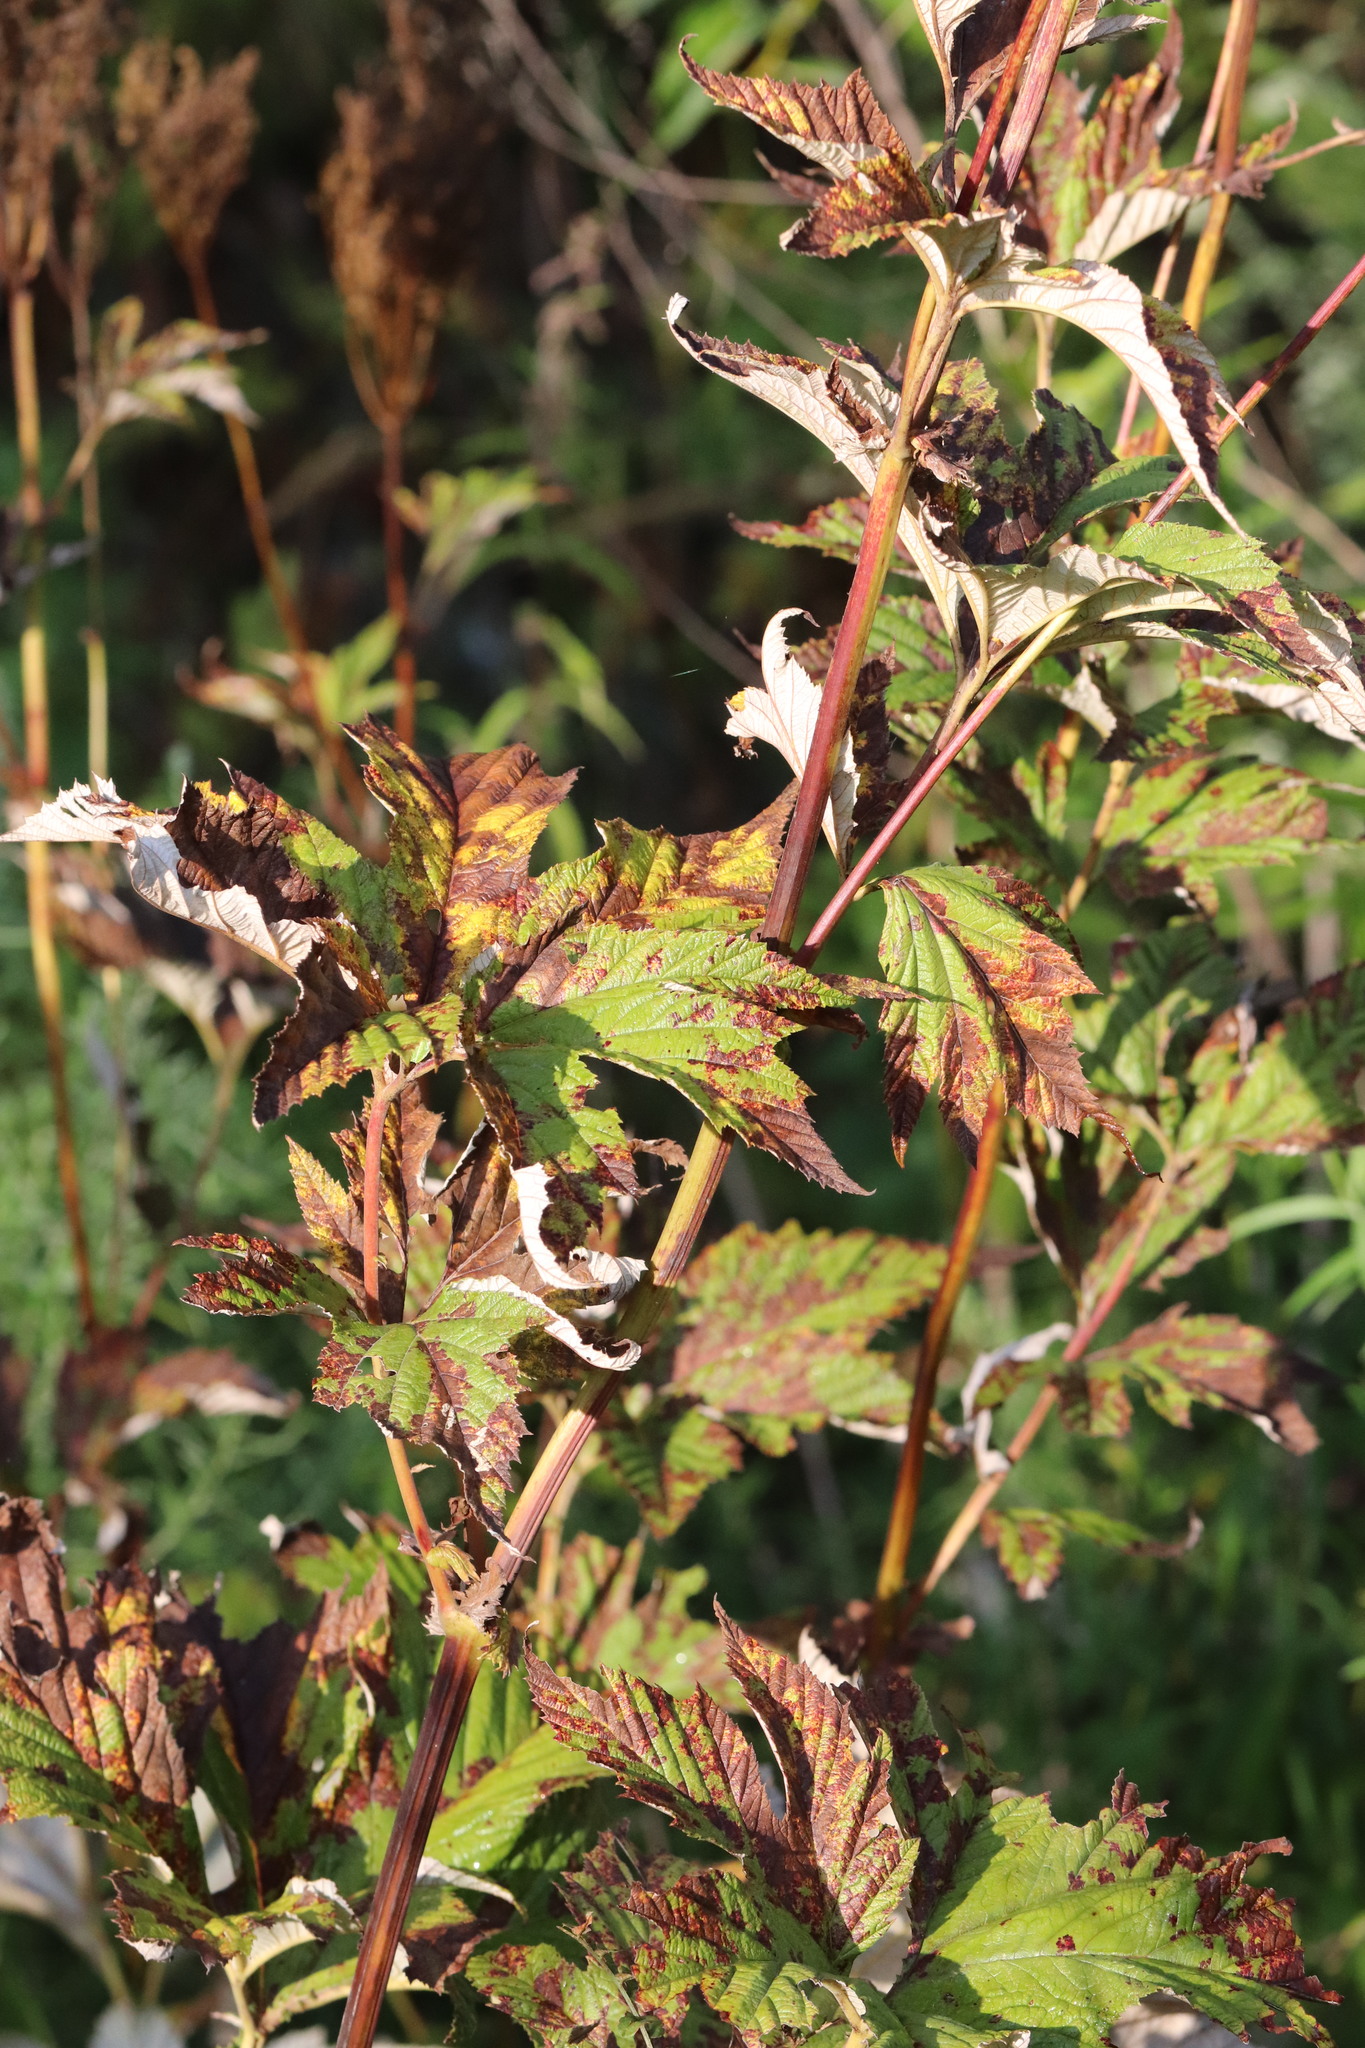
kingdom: Plantae
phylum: Tracheophyta
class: Magnoliopsida
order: Rosales
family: Rosaceae
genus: Filipendula
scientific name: Filipendula digitata
